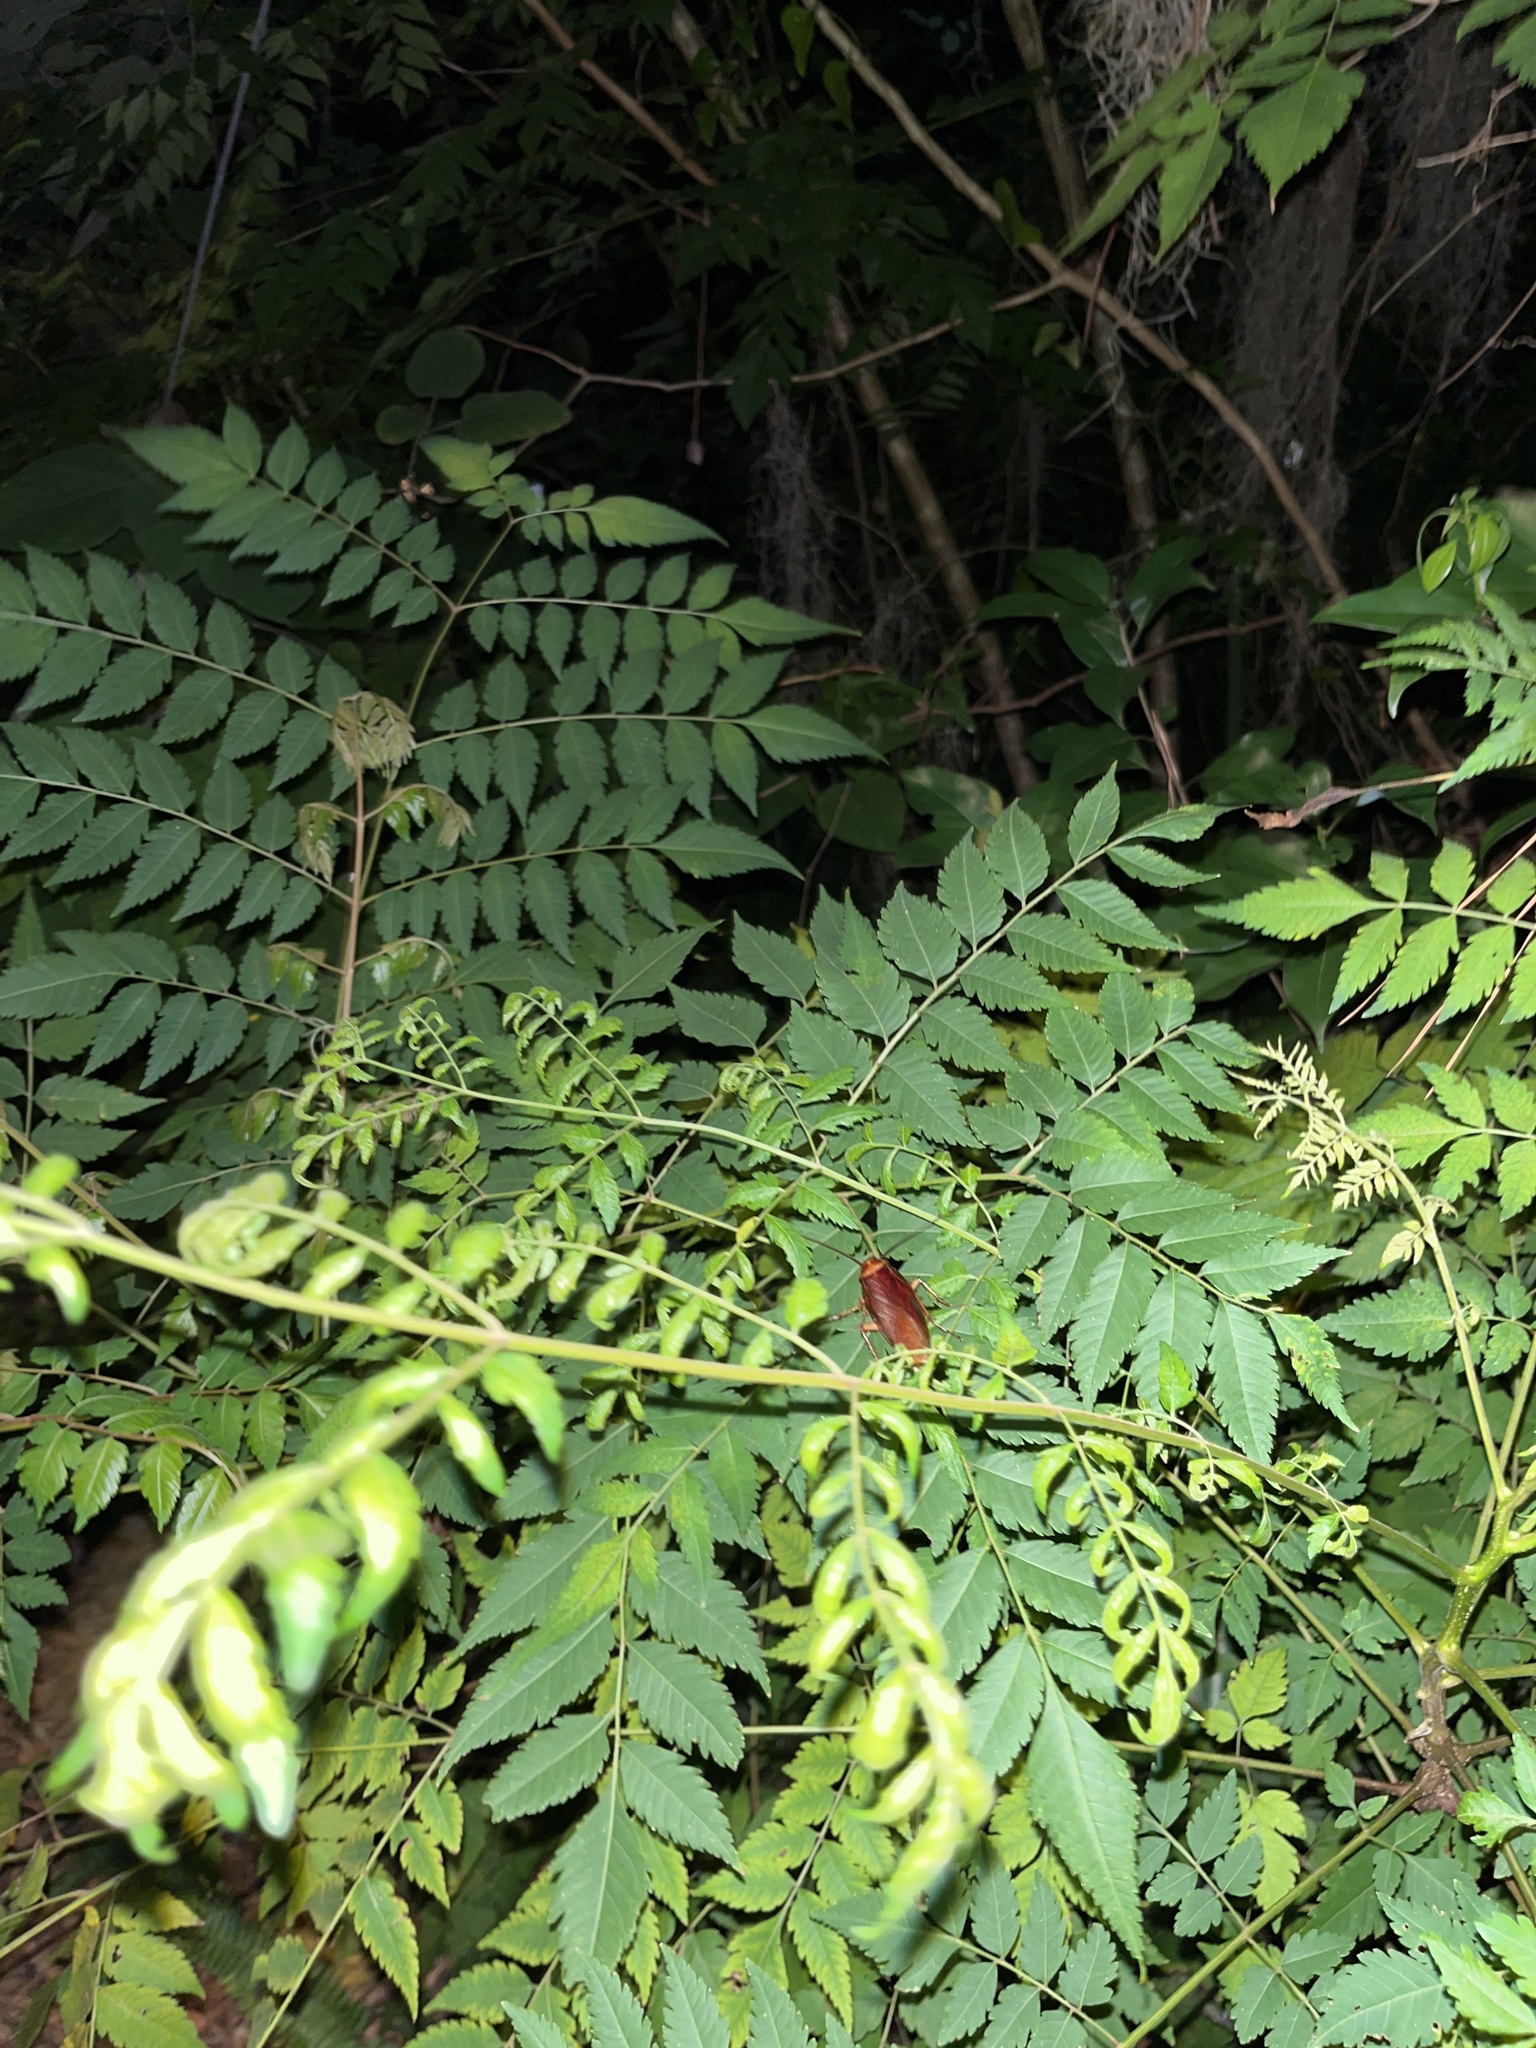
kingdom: Animalia
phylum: Arthropoda
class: Insecta
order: Blattodea
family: Blattidae
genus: Periplaneta
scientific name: Periplaneta americana
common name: American cockroach
